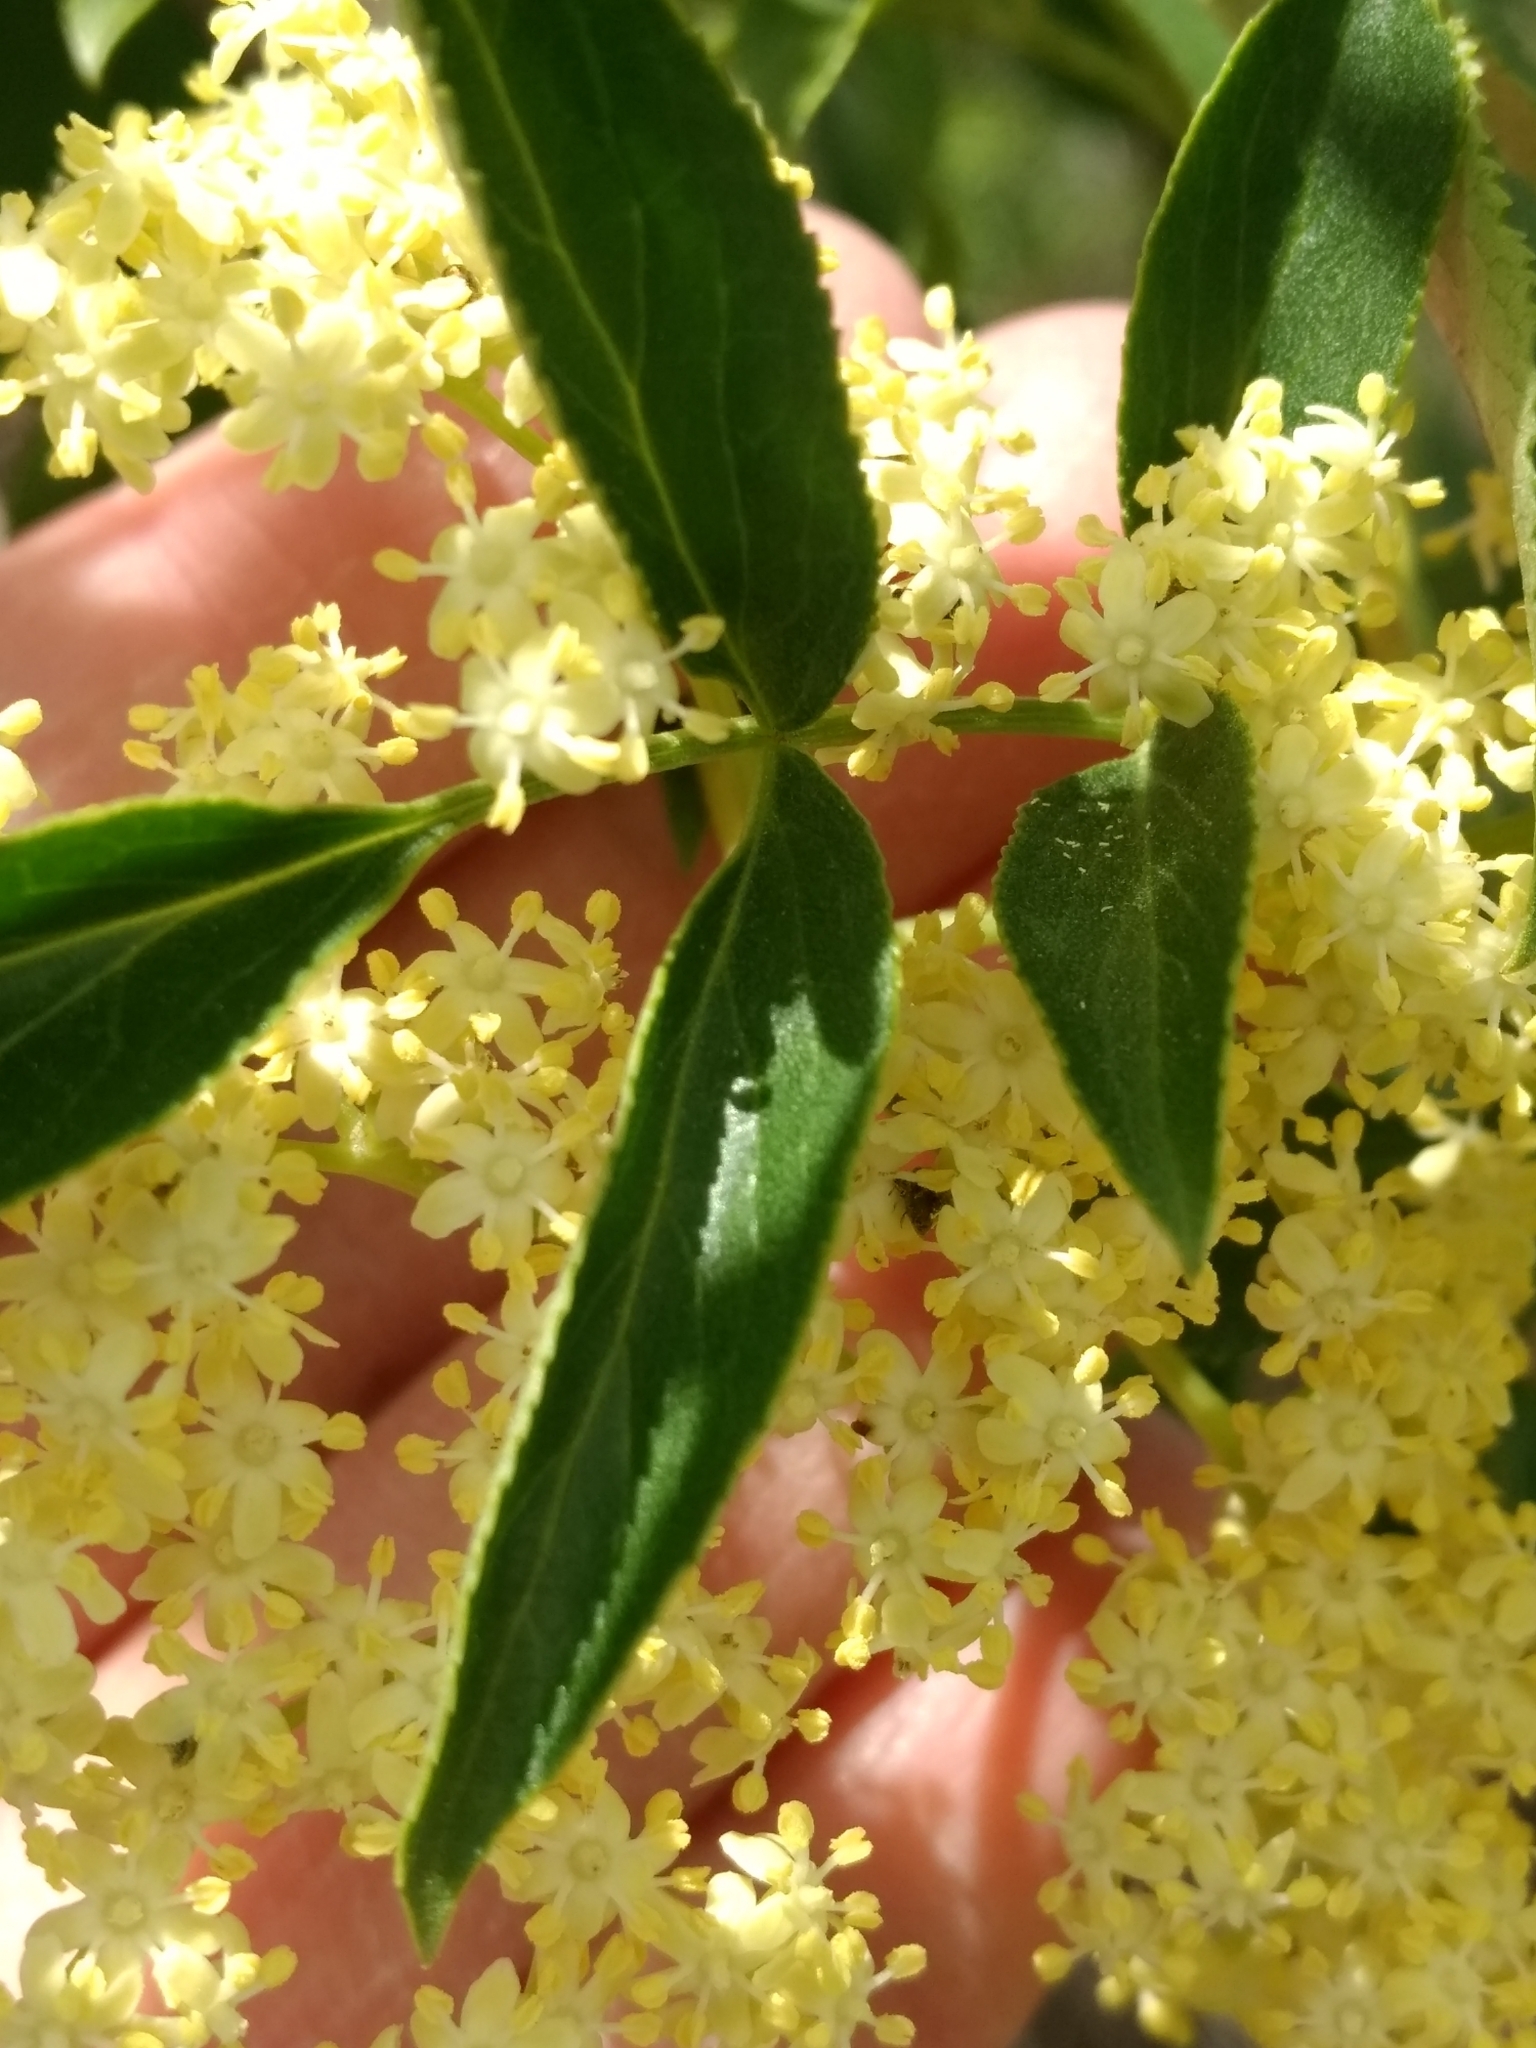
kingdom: Plantae
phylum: Tracheophyta
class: Magnoliopsida
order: Dipsacales
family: Viburnaceae
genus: Sambucus
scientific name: Sambucus cerulea
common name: Blue elder
